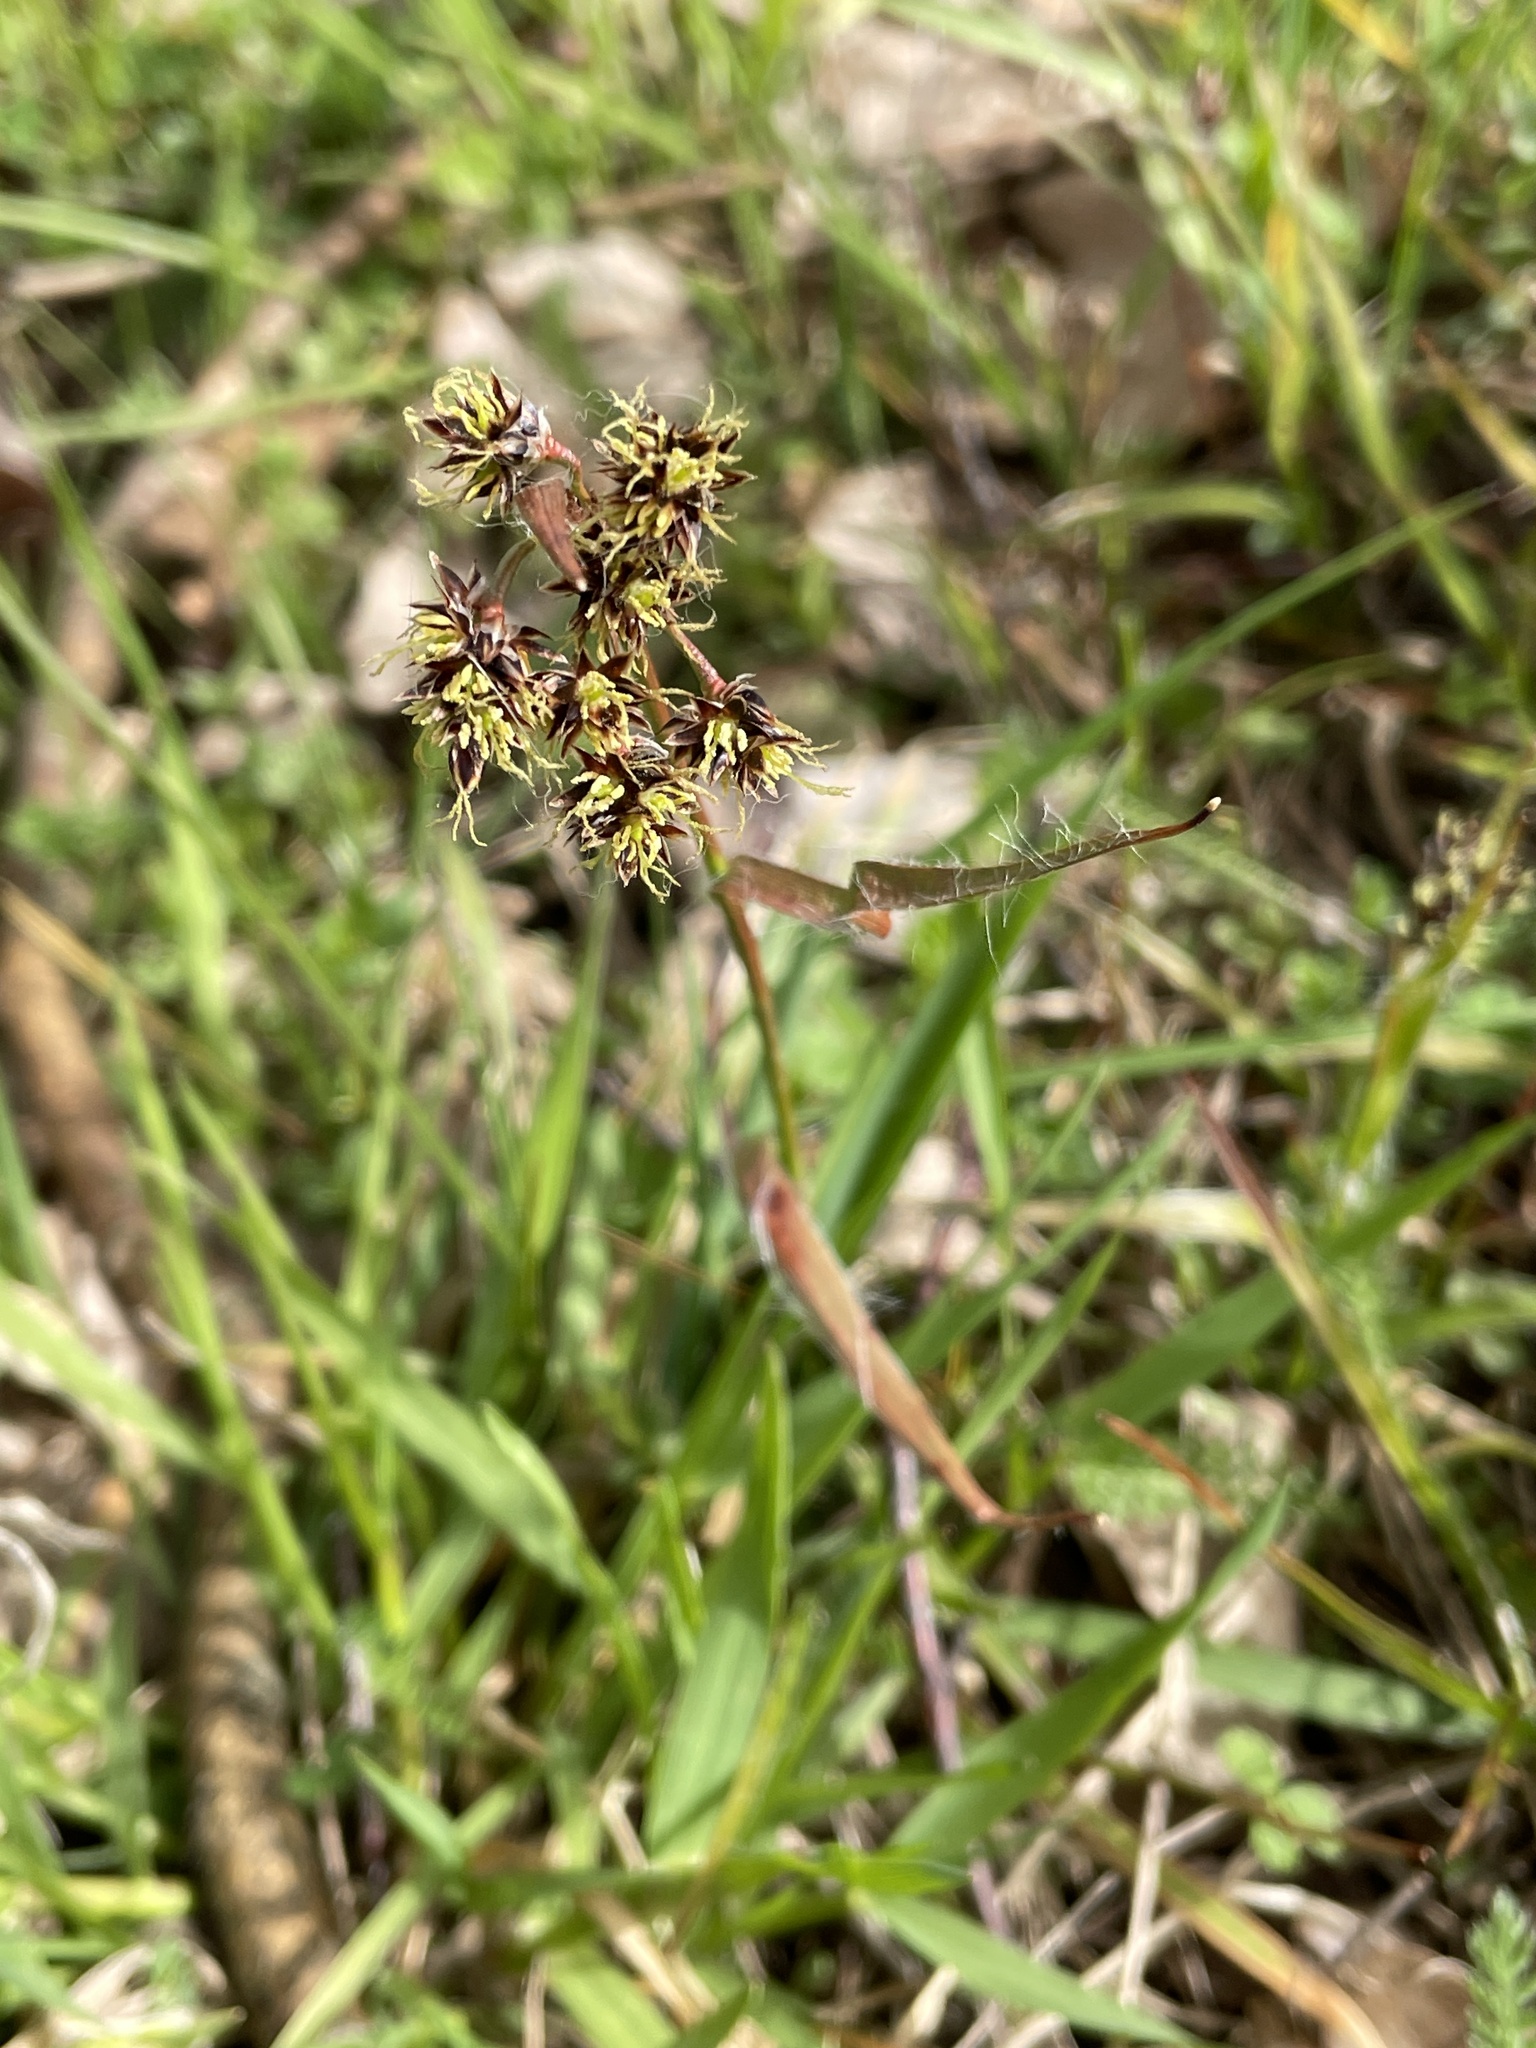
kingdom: Plantae
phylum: Tracheophyta
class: Liliopsida
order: Poales
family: Juncaceae
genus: Luzula
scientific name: Luzula campestris
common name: Field wood-rush
